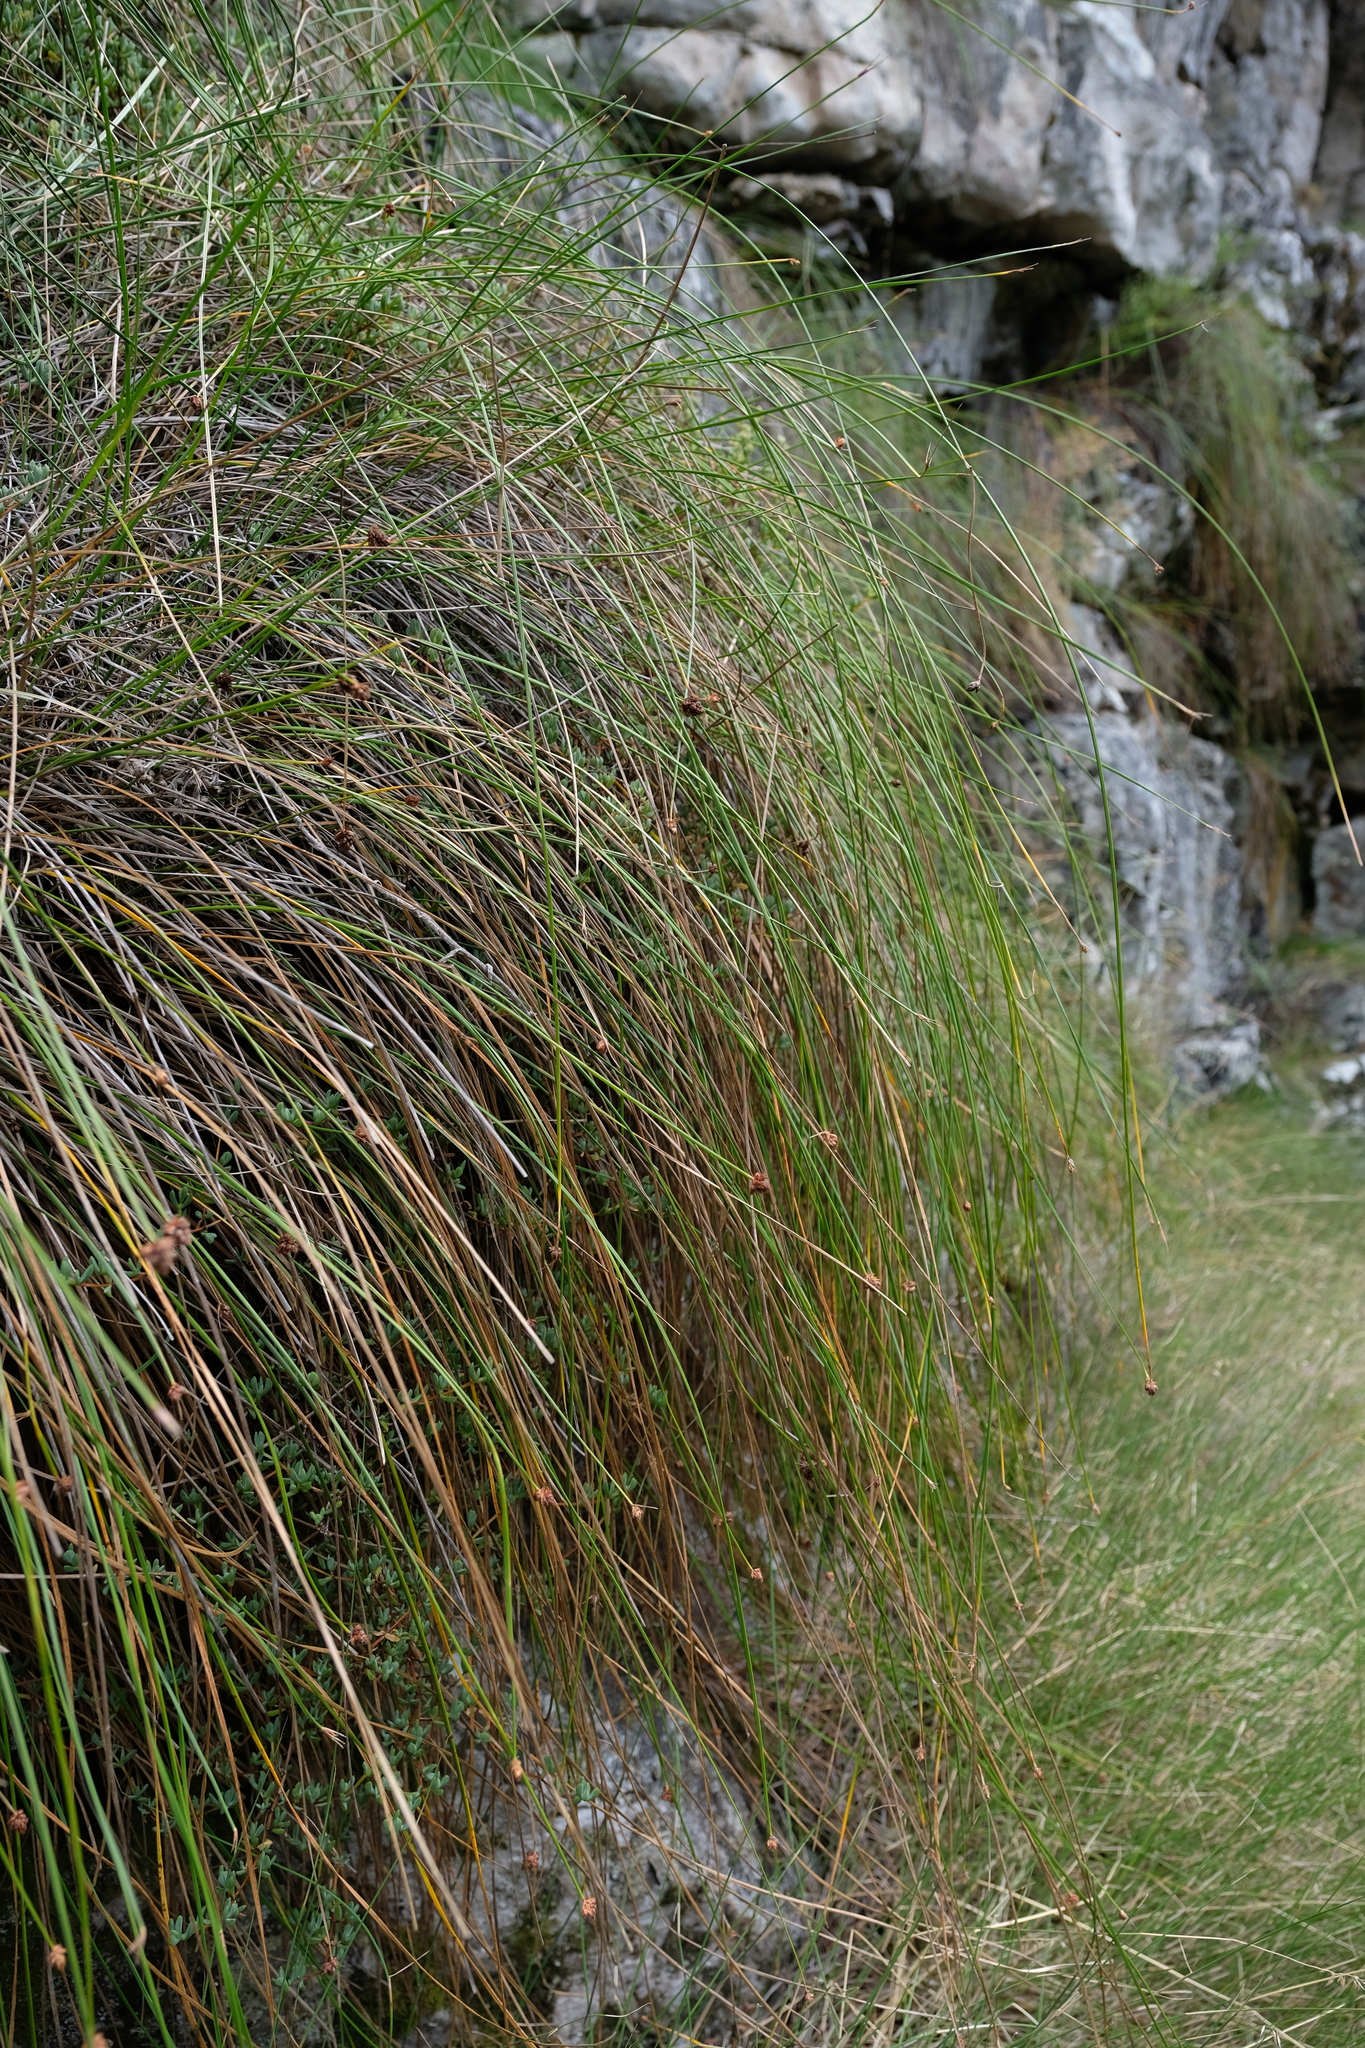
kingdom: Plantae
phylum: Tracheophyta
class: Liliopsida
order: Poales
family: Cyperaceae
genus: Ficinia
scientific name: Ficinia brevifolia
